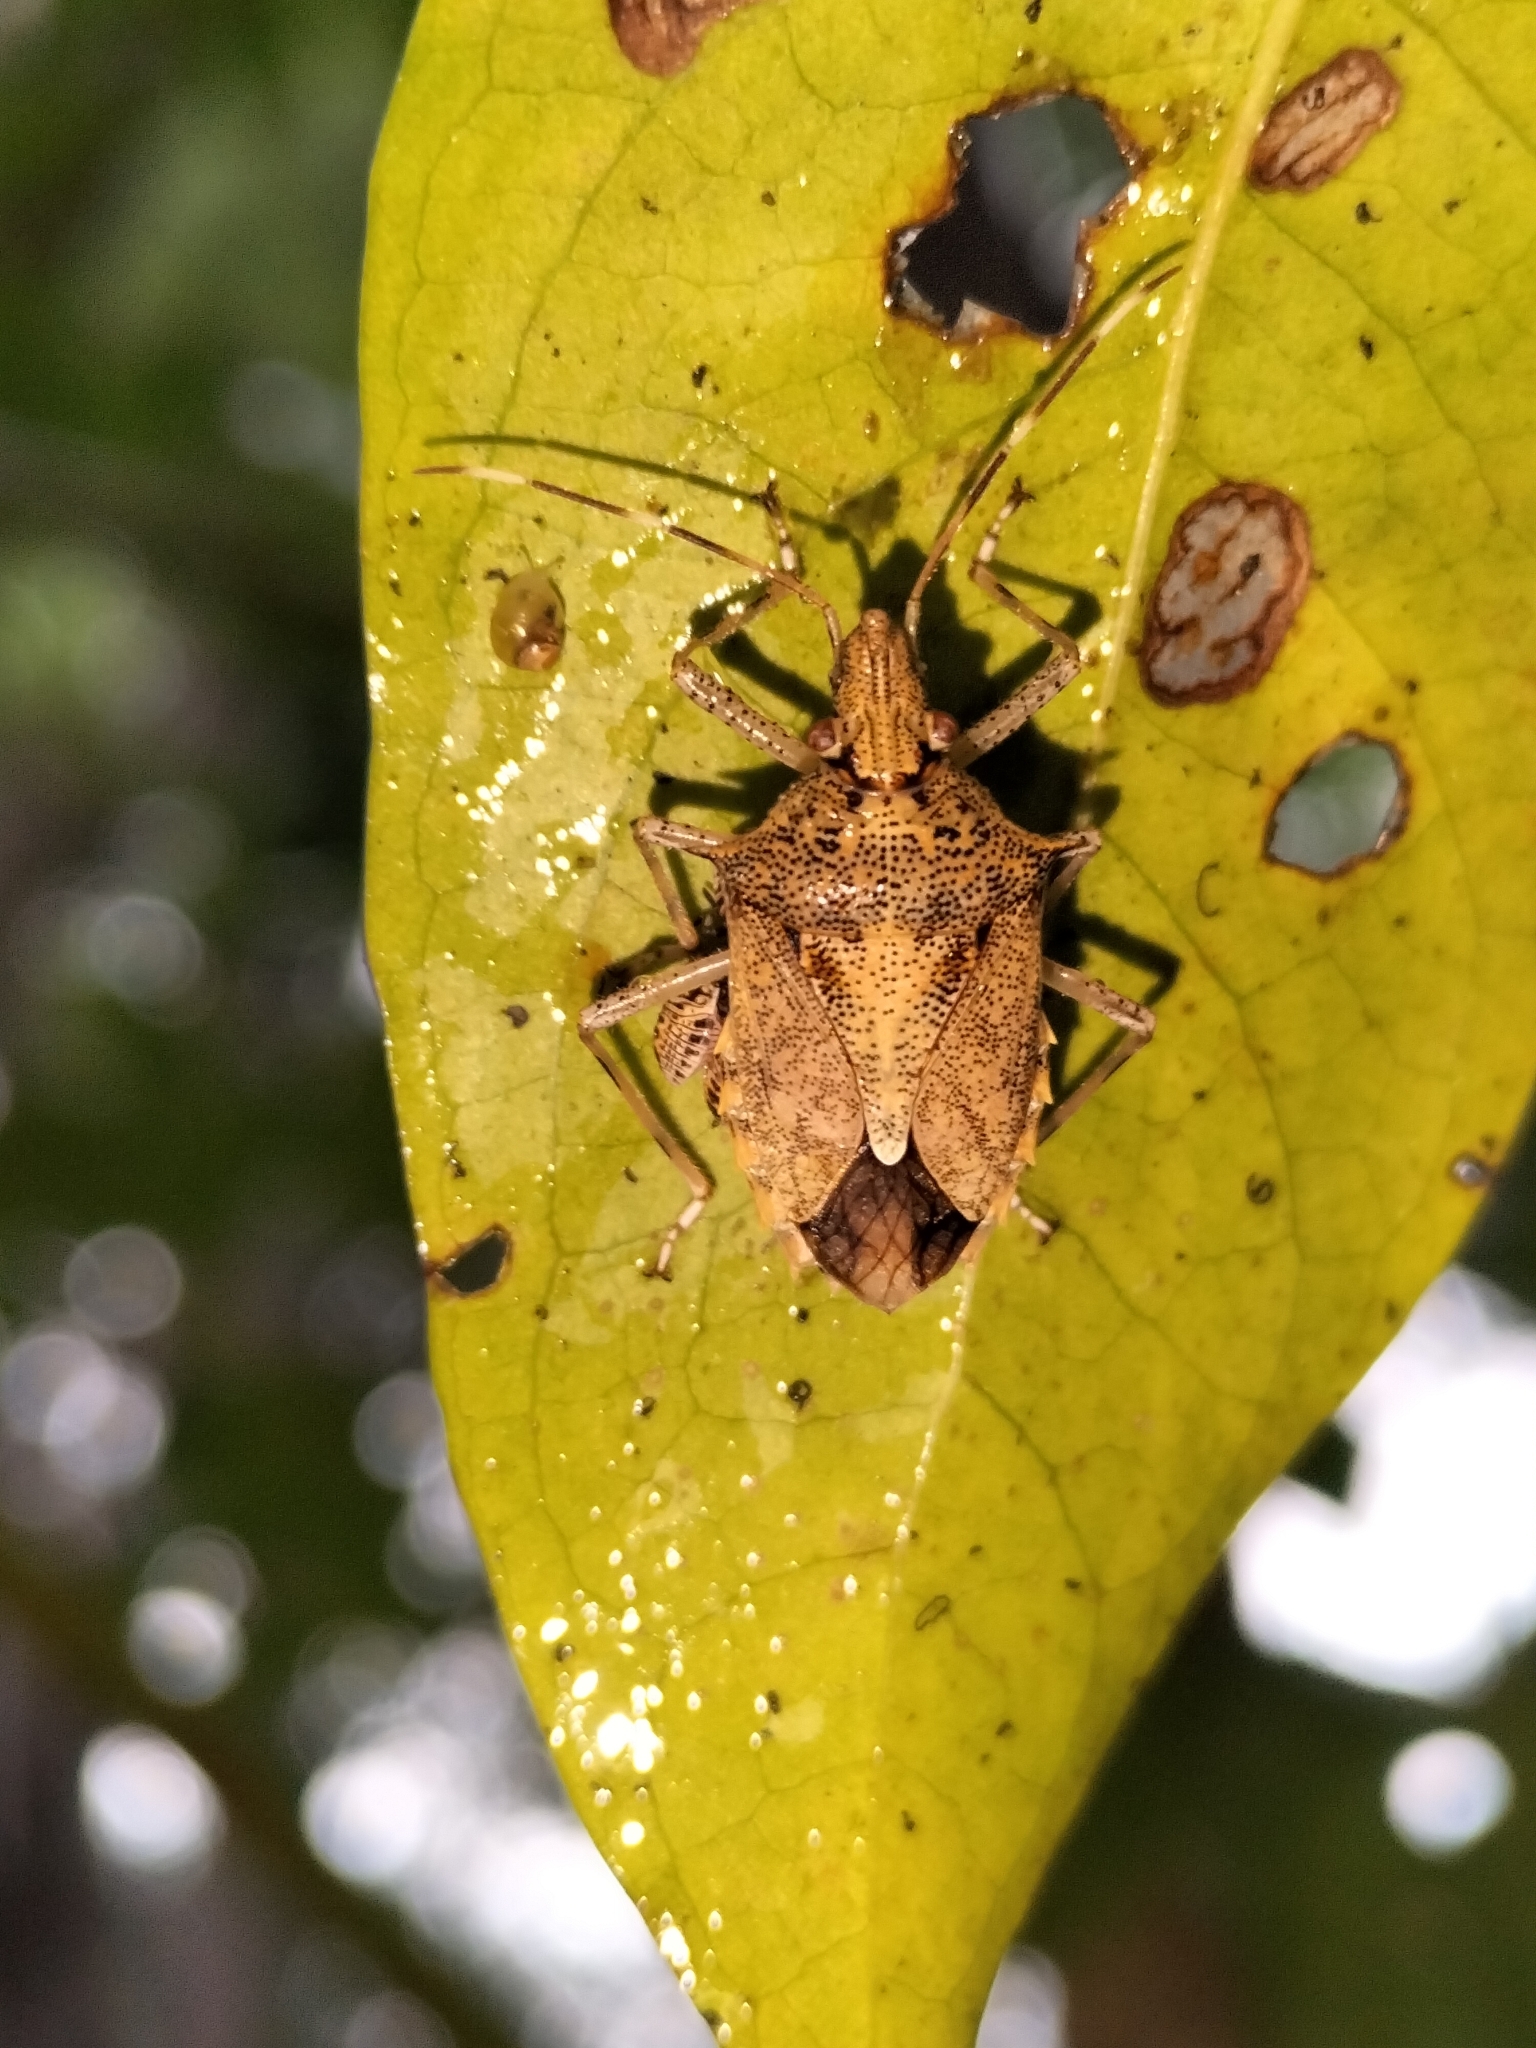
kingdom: Animalia
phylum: Arthropoda
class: Insecta
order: Hemiptera
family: Pentatomidae
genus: Bromocoris
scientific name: Bromocoris
